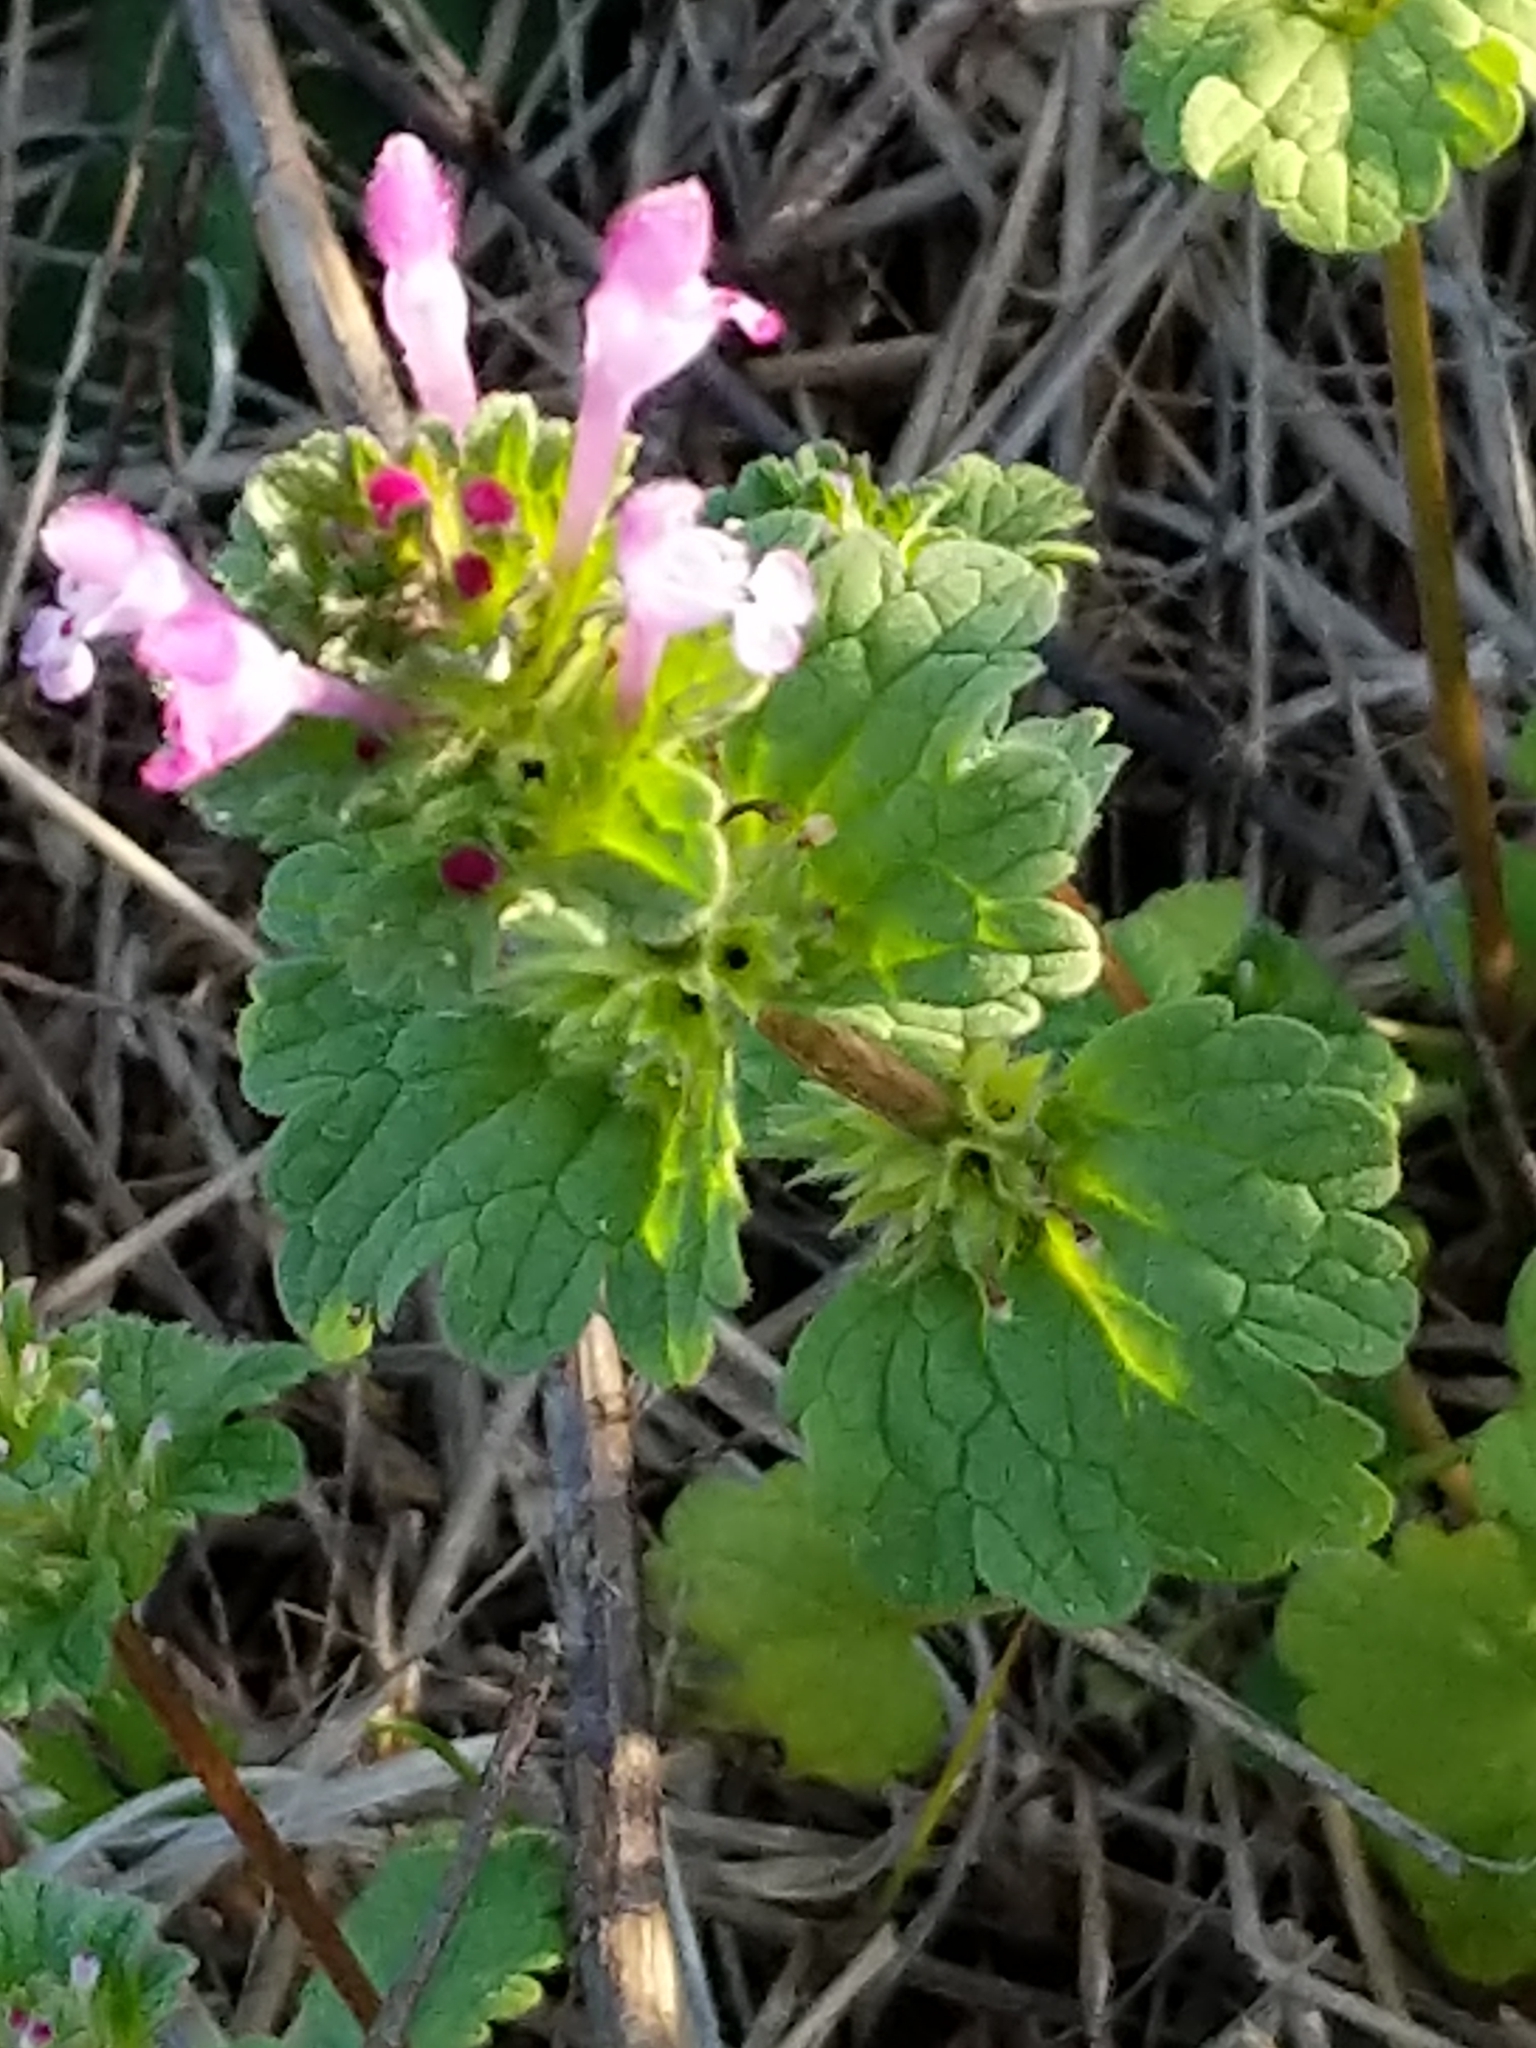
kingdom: Plantae
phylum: Tracheophyta
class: Magnoliopsida
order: Lamiales
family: Lamiaceae
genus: Lamium
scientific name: Lamium amplexicaule
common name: Henbit dead-nettle
